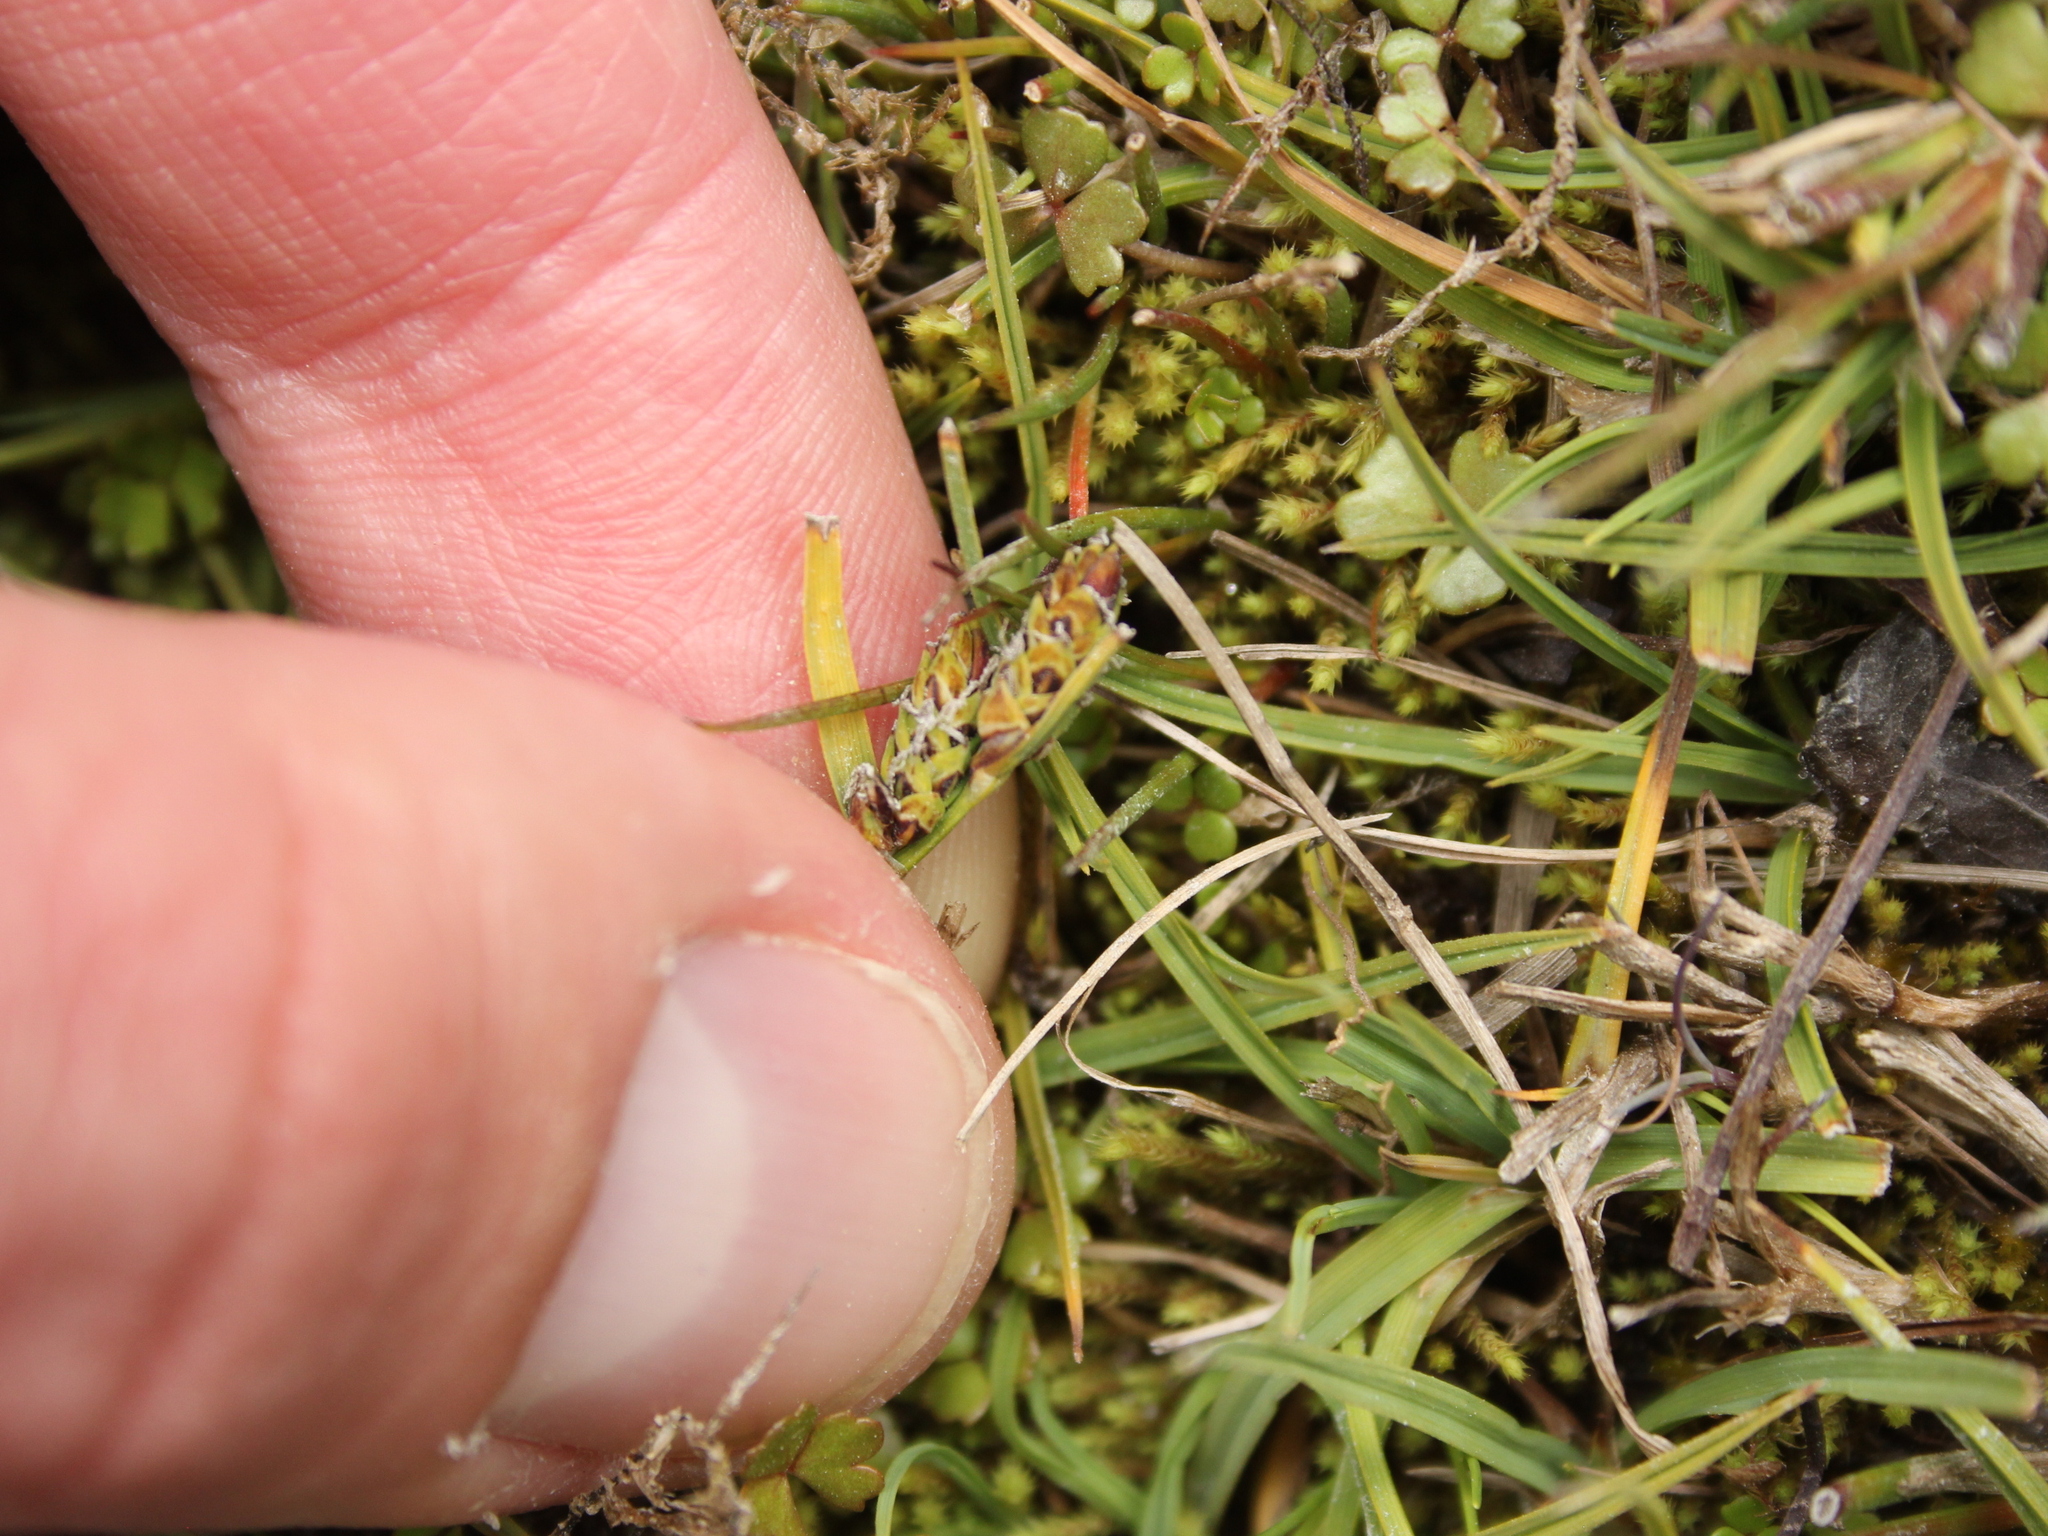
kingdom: Plantae
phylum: Tracheophyta
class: Liliopsida
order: Poales
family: Cyperaceae
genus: Carex
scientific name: Carex gaudichaudiana
